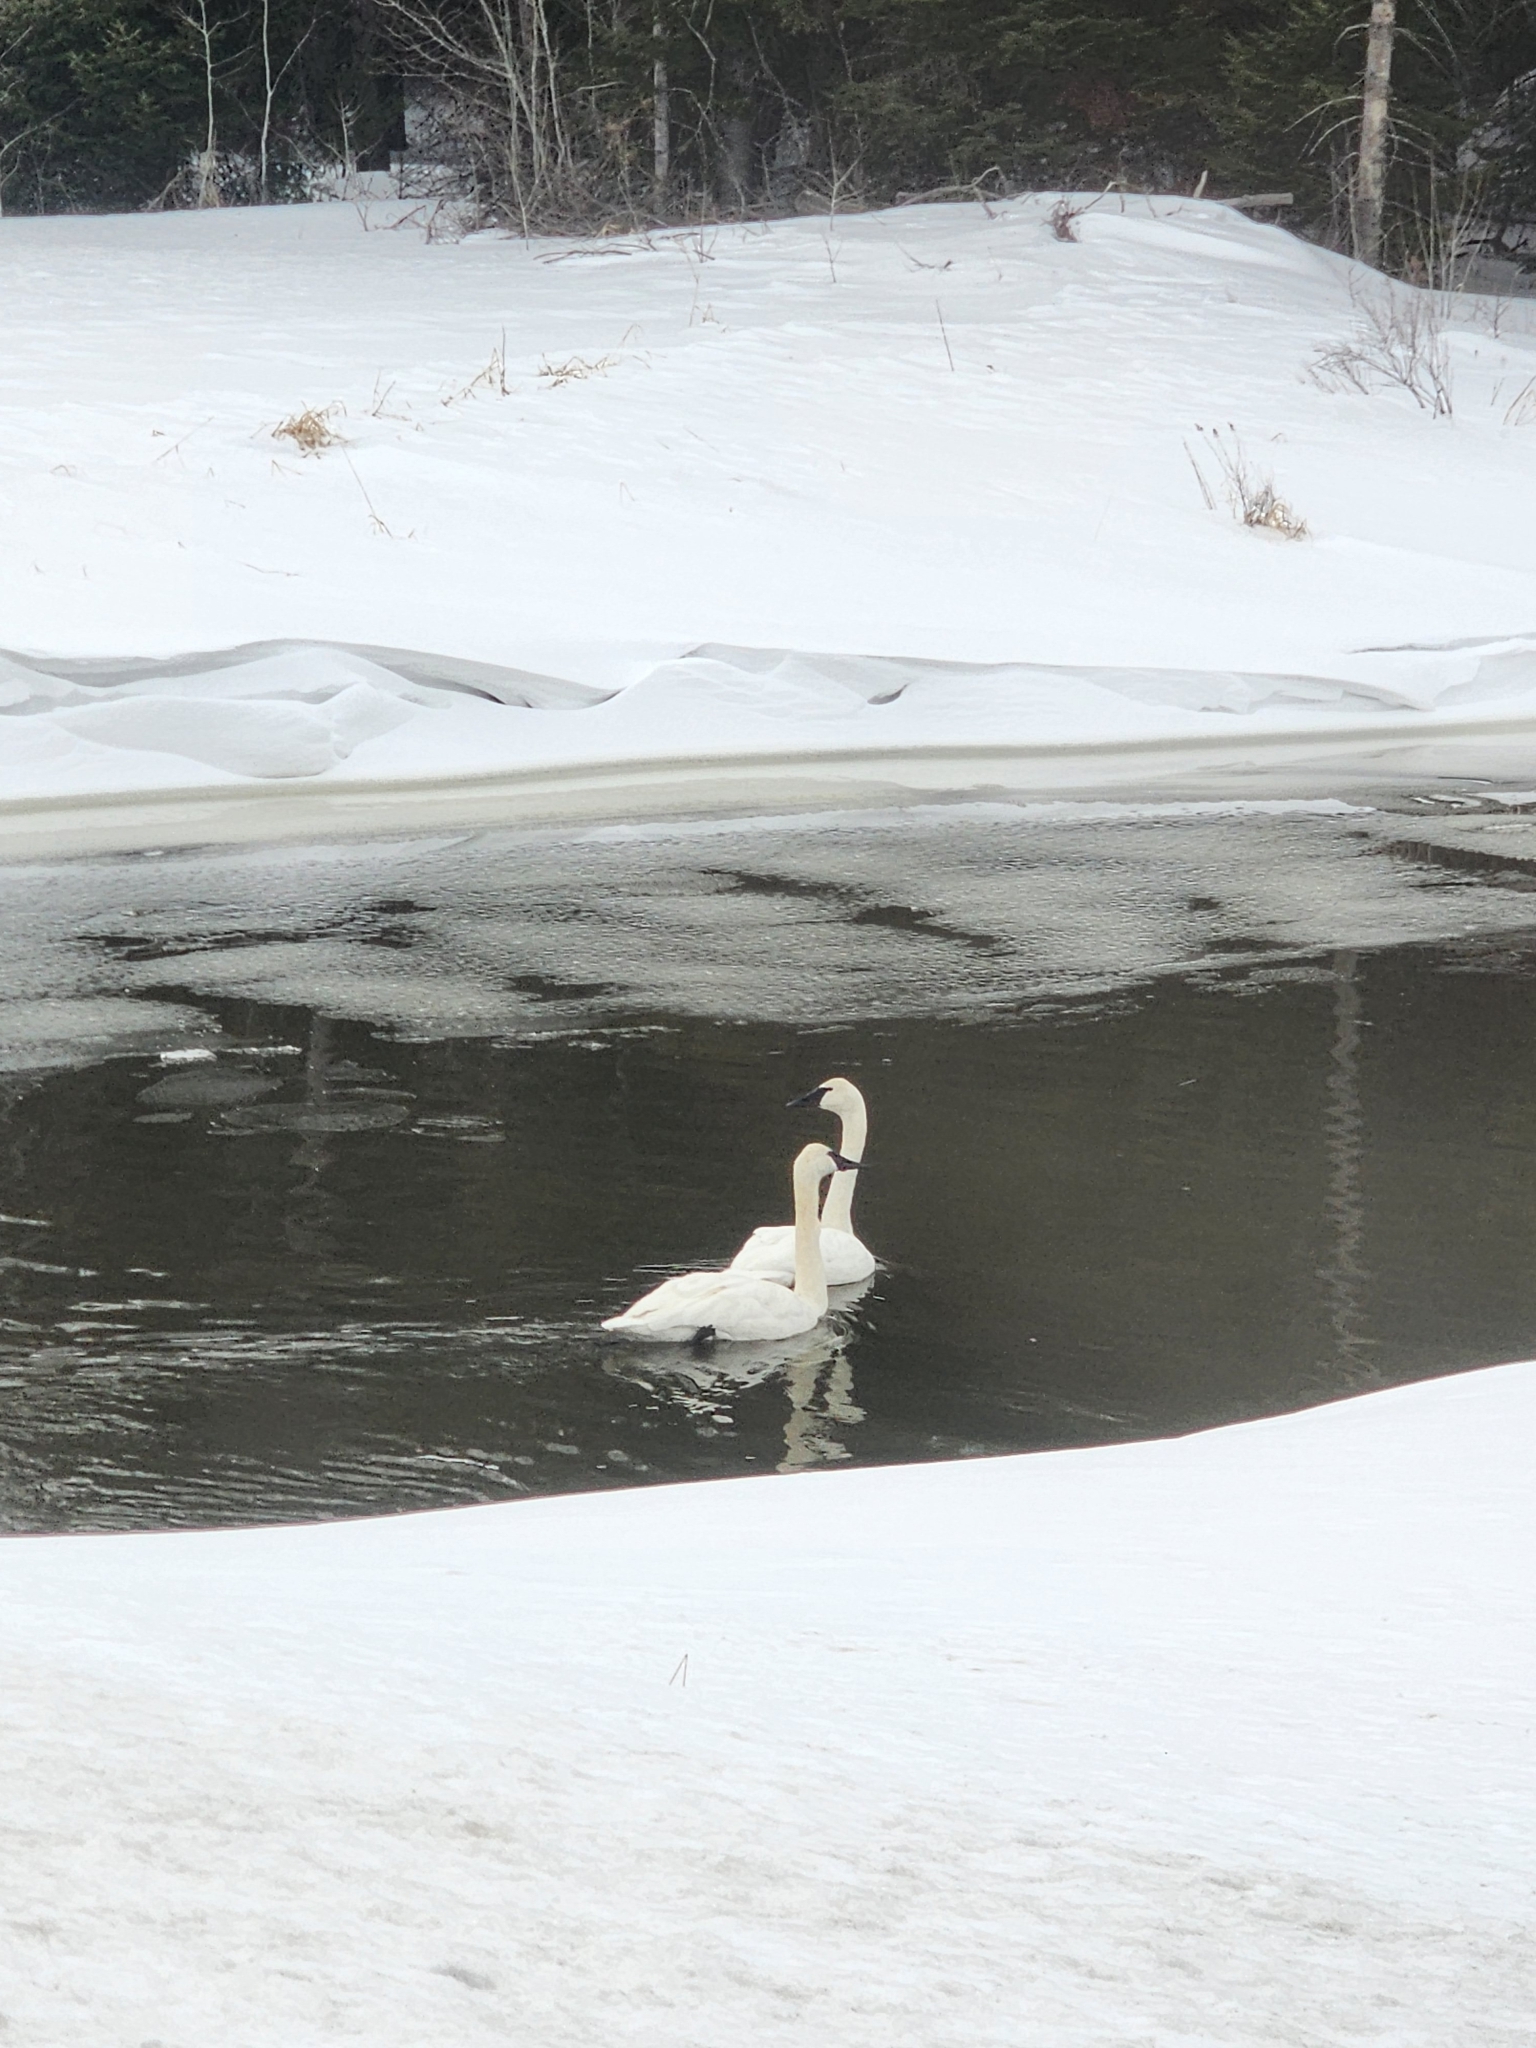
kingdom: Animalia
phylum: Chordata
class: Aves
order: Anseriformes
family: Anatidae
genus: Cygnus
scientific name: Cygnus buccinator
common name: Trumpeter swan
